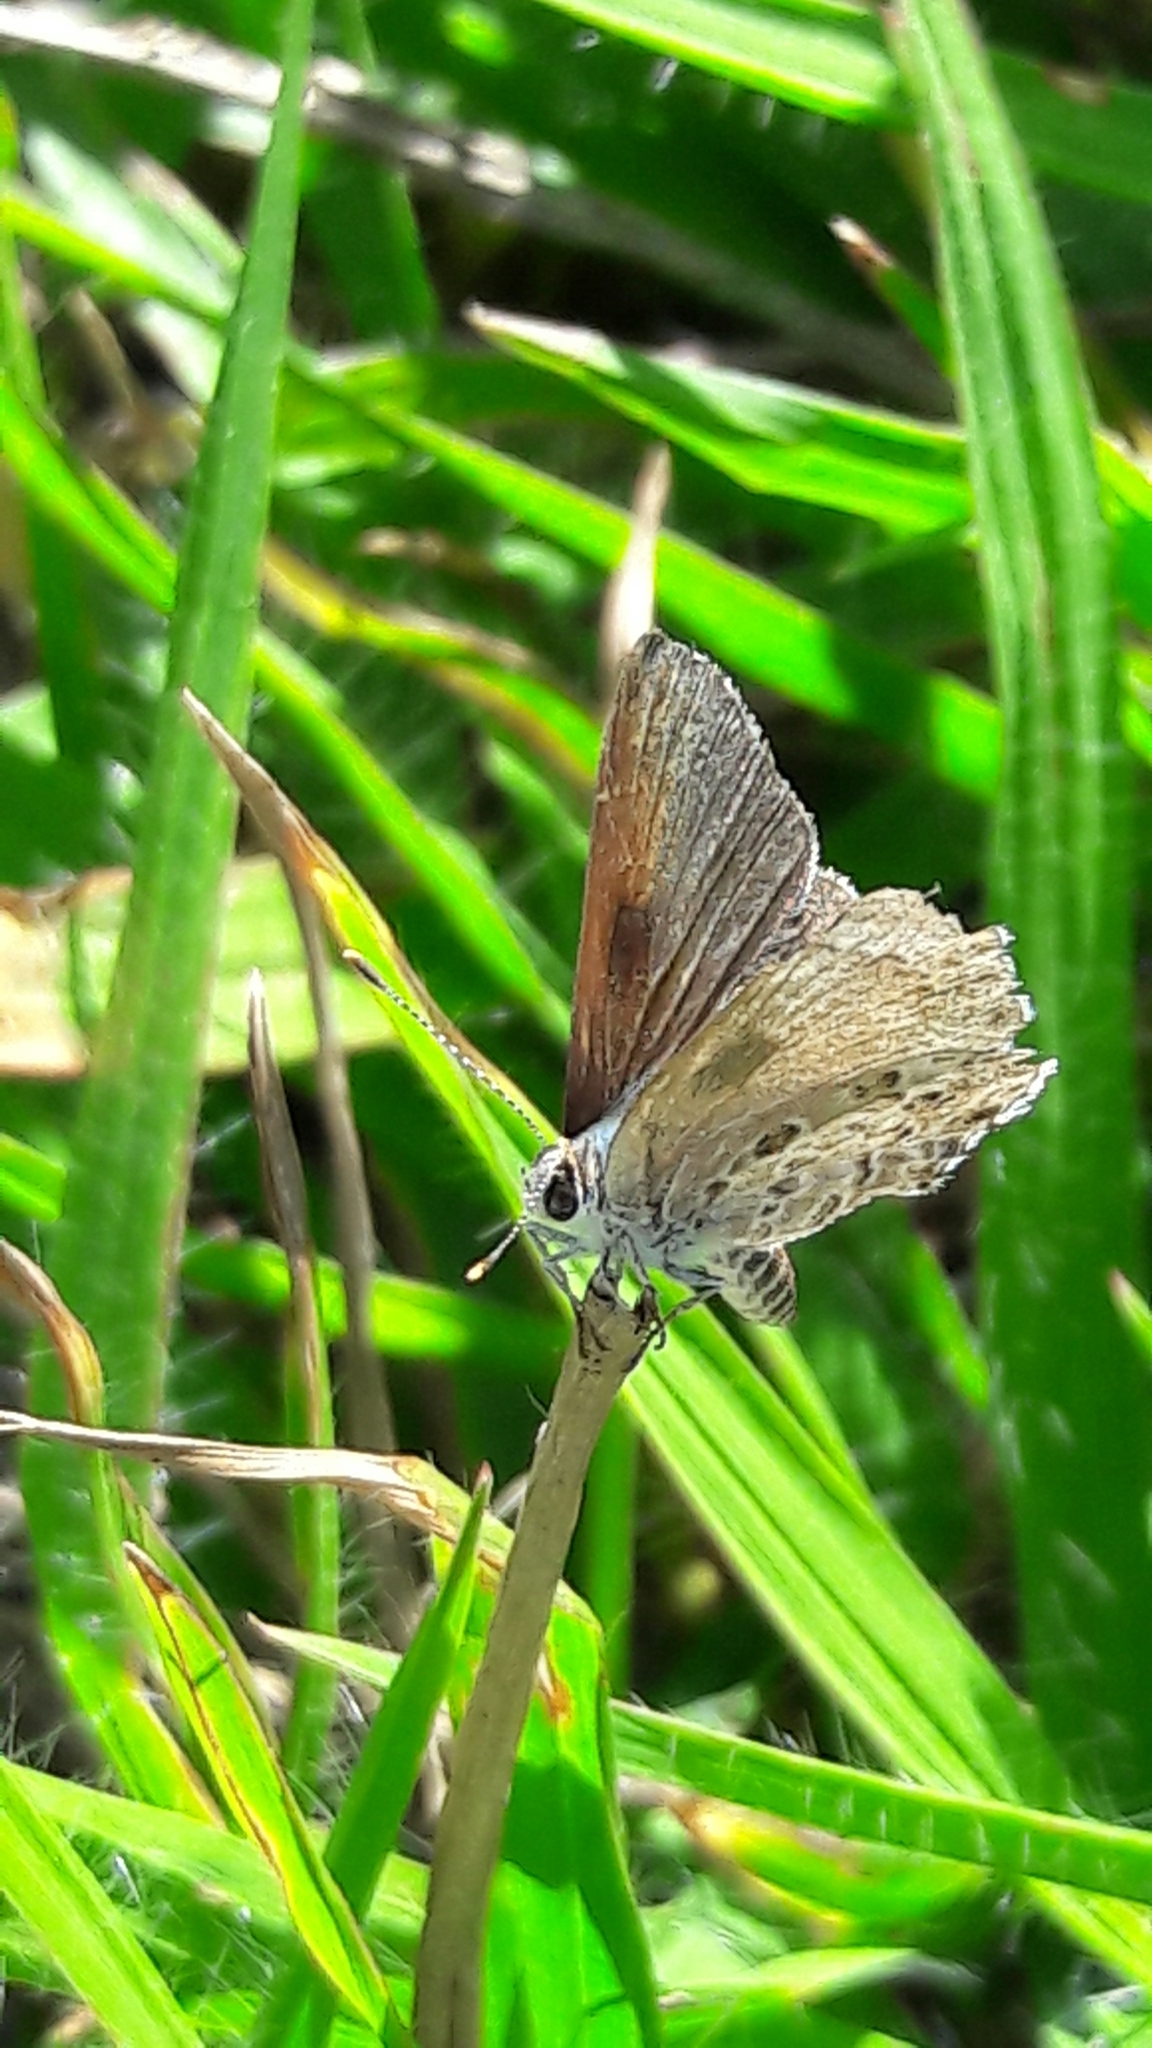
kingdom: Animalia
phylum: Arthropoda
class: Insecta
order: Lepidoptera
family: Lycaenidae
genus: Strymon
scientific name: Strymon astiocha
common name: Gray-spotted scrub-hairstreak
